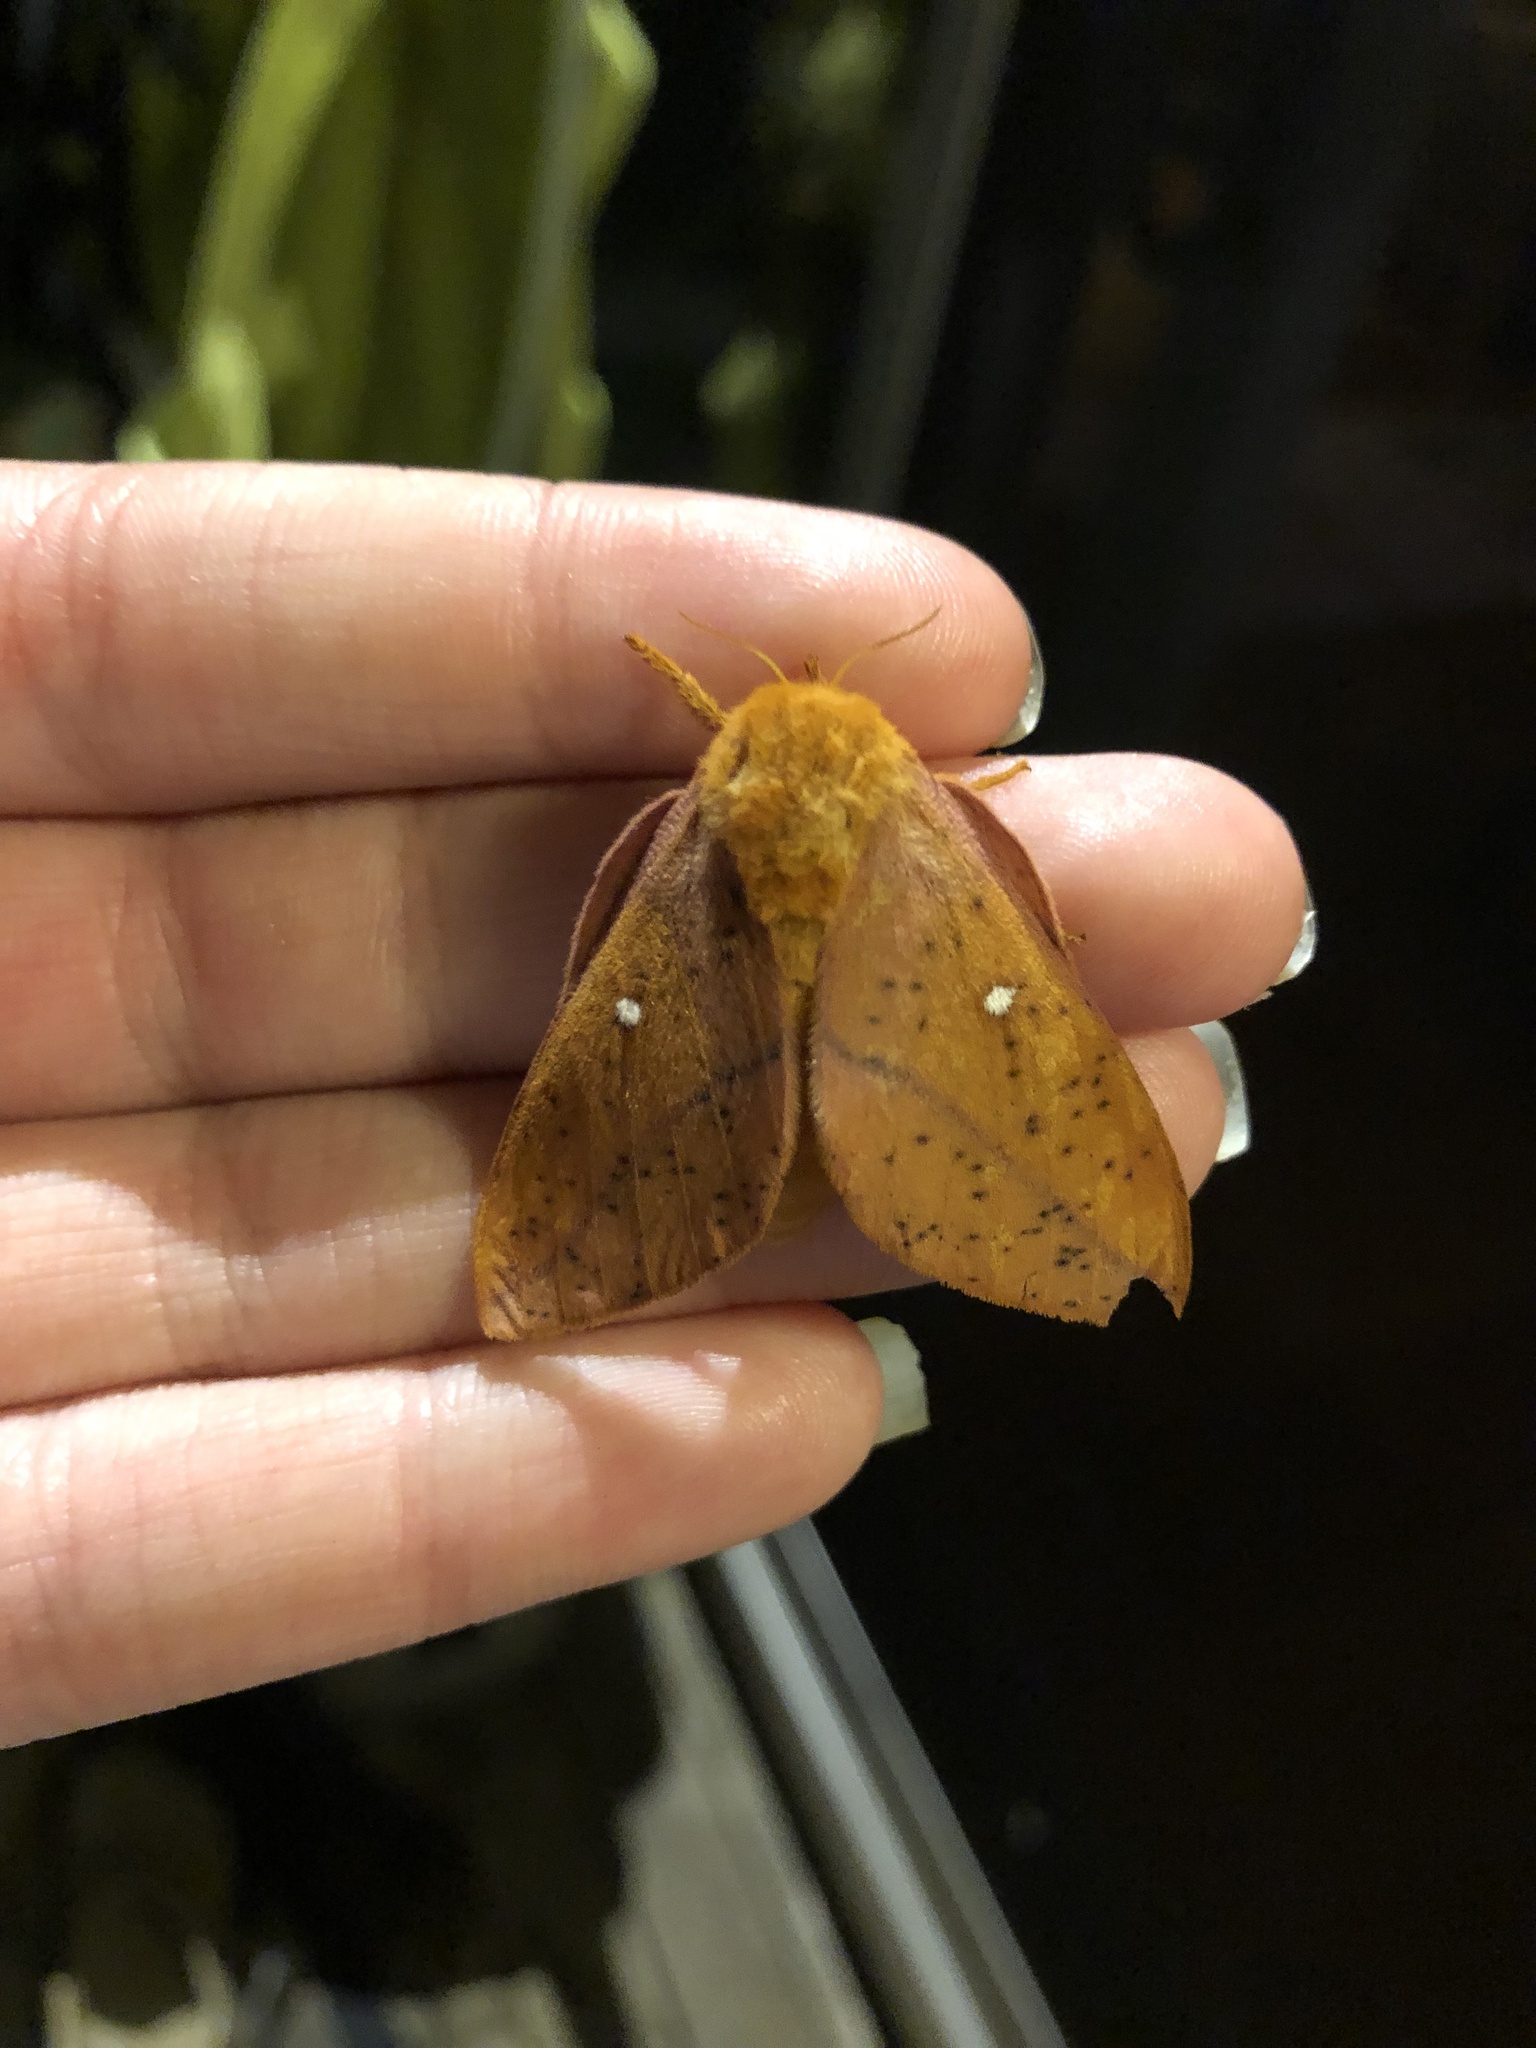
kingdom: Animalia
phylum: Arthropoda
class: Insecta
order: Lepidoptera
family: Saturniidae
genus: Anisota
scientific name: Anisota stigma
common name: Spiny oakworm moth
